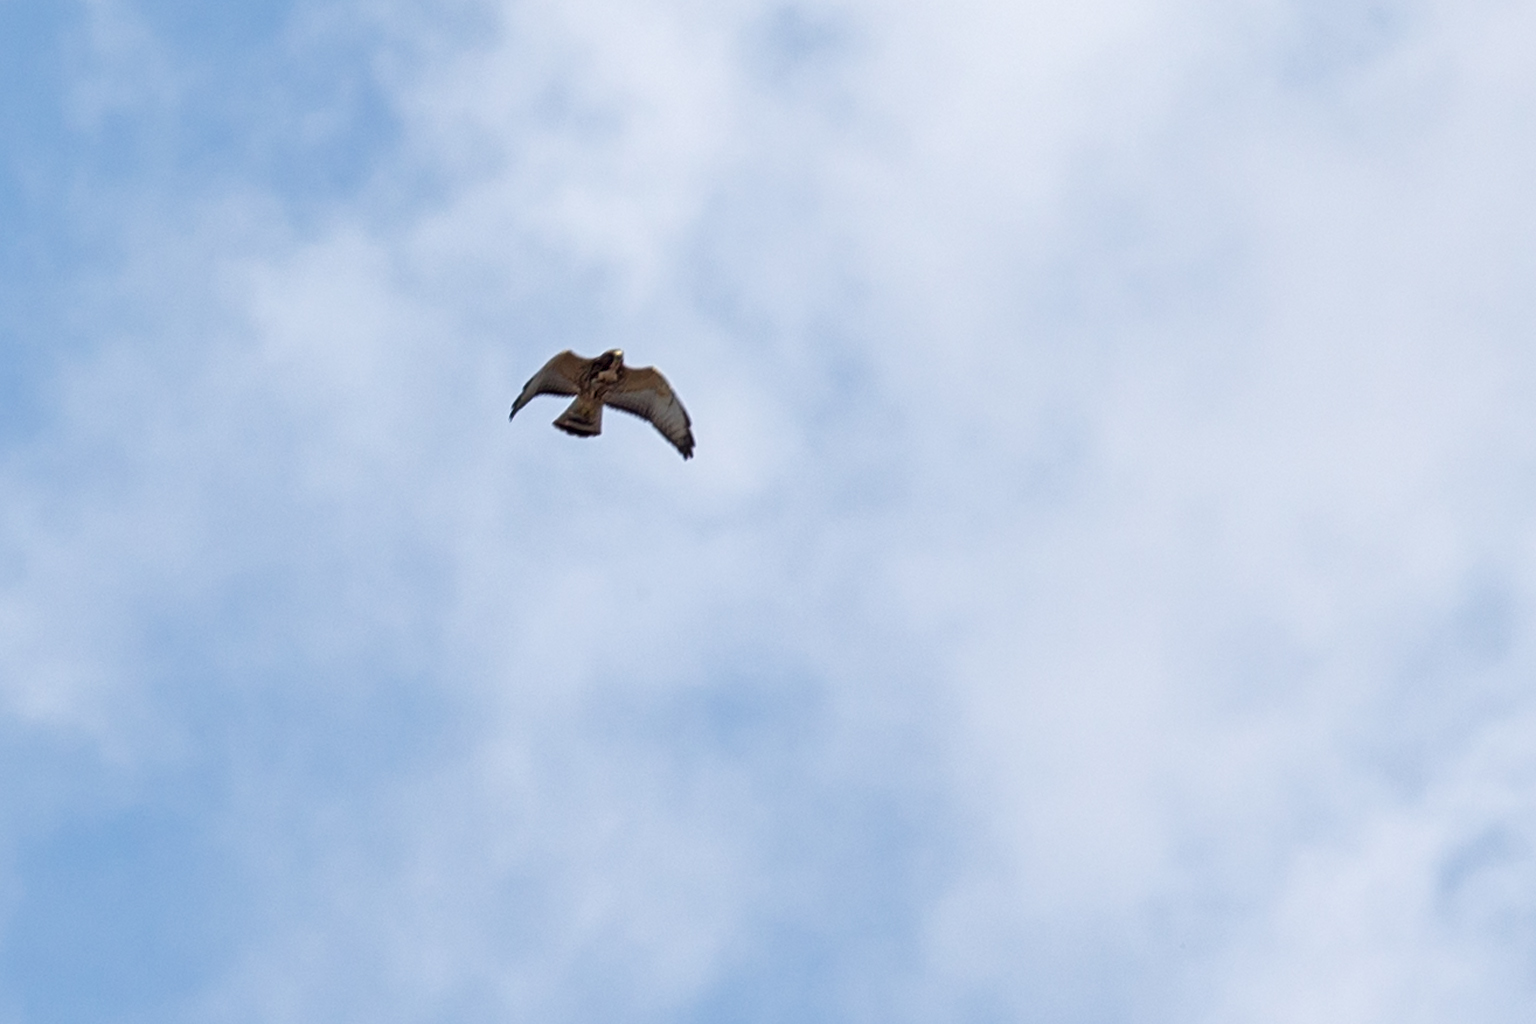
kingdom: Animalia
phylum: Chordata
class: Aves
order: Accipitriformes
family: Accipitridae
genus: Buteo
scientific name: Buteo platypterus
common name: Broad-winged hawk
